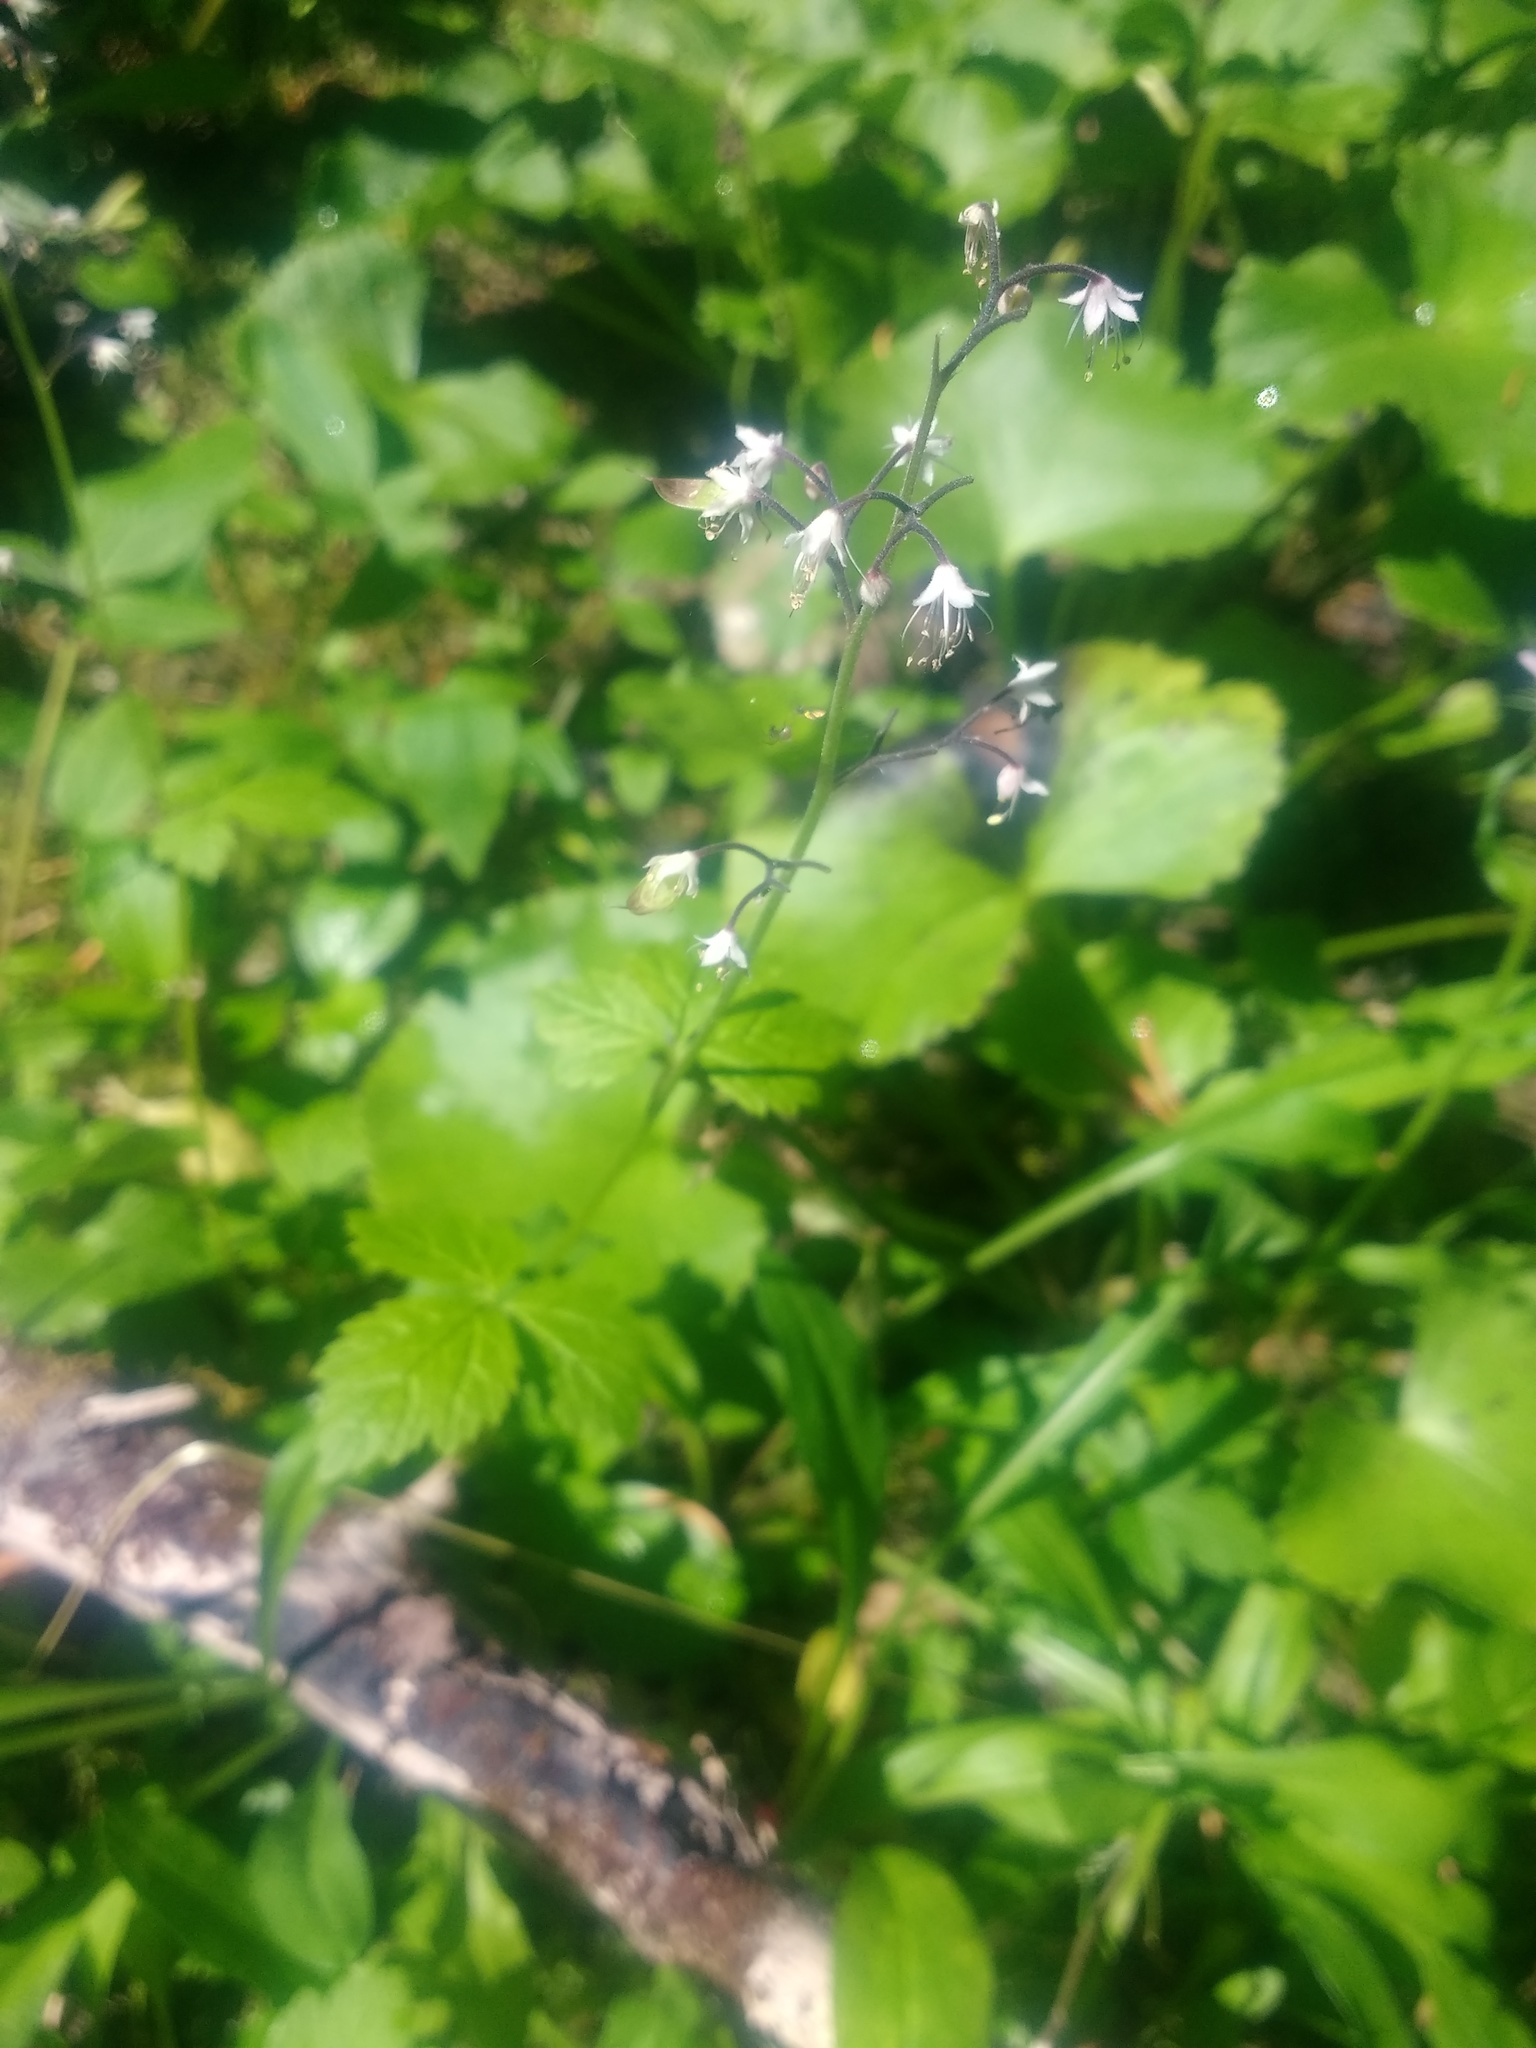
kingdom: Plantae
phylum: Tracheophyta
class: Magnoliopsida
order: Saxifragales
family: Saxifragaceae
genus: Tiarella
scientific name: Tiarella trifoliata
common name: Sugar-scoop
